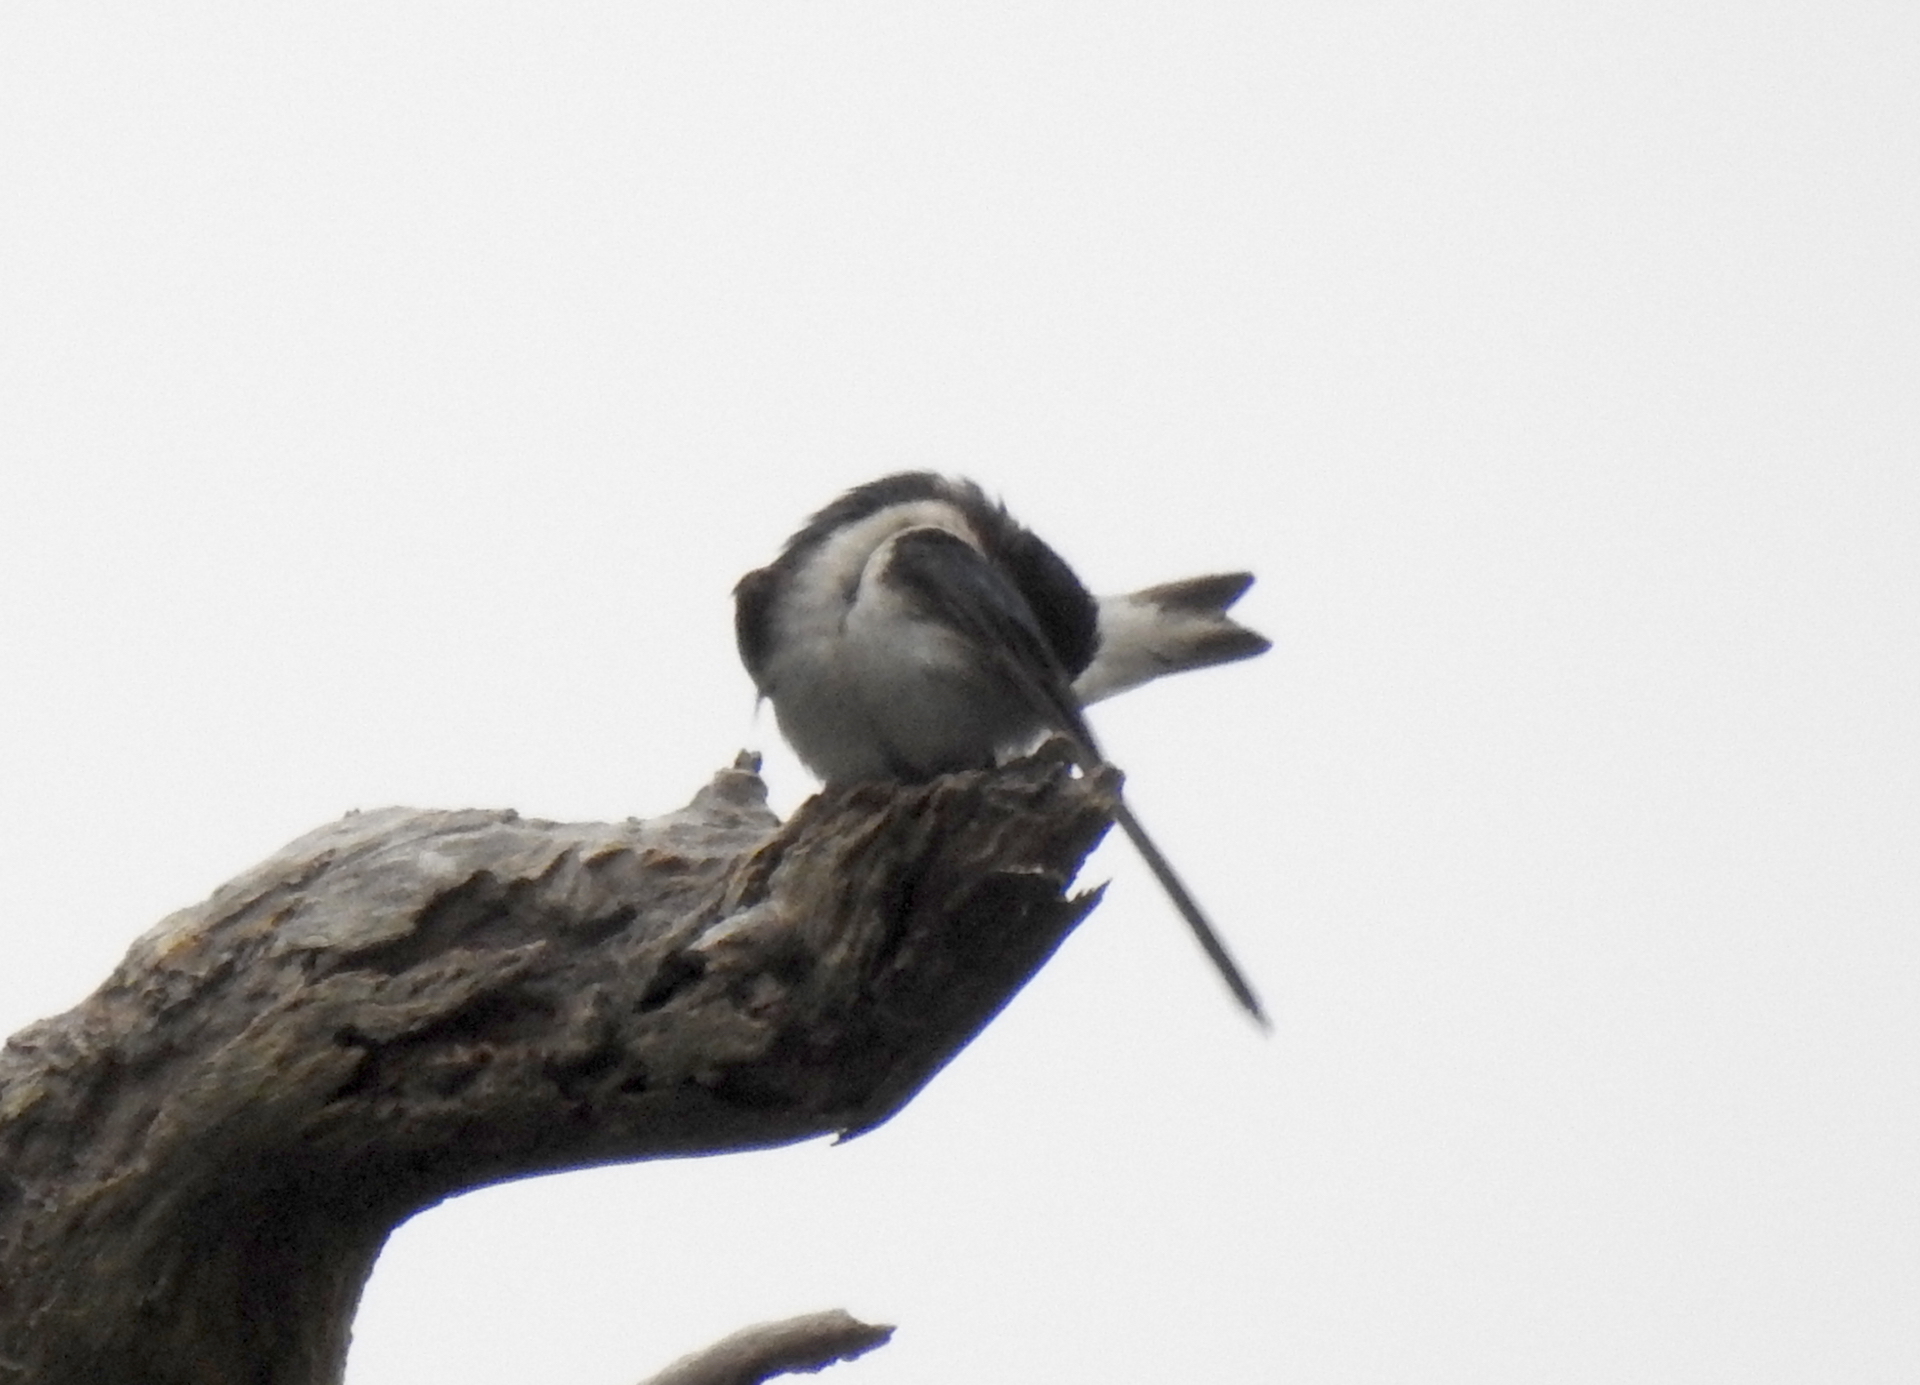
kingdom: Animalia
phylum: Chordata
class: Aves
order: Passeriformes
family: Hirundinidae
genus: Tachycineta
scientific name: Tachycineta bicolor
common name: Tree swallow
